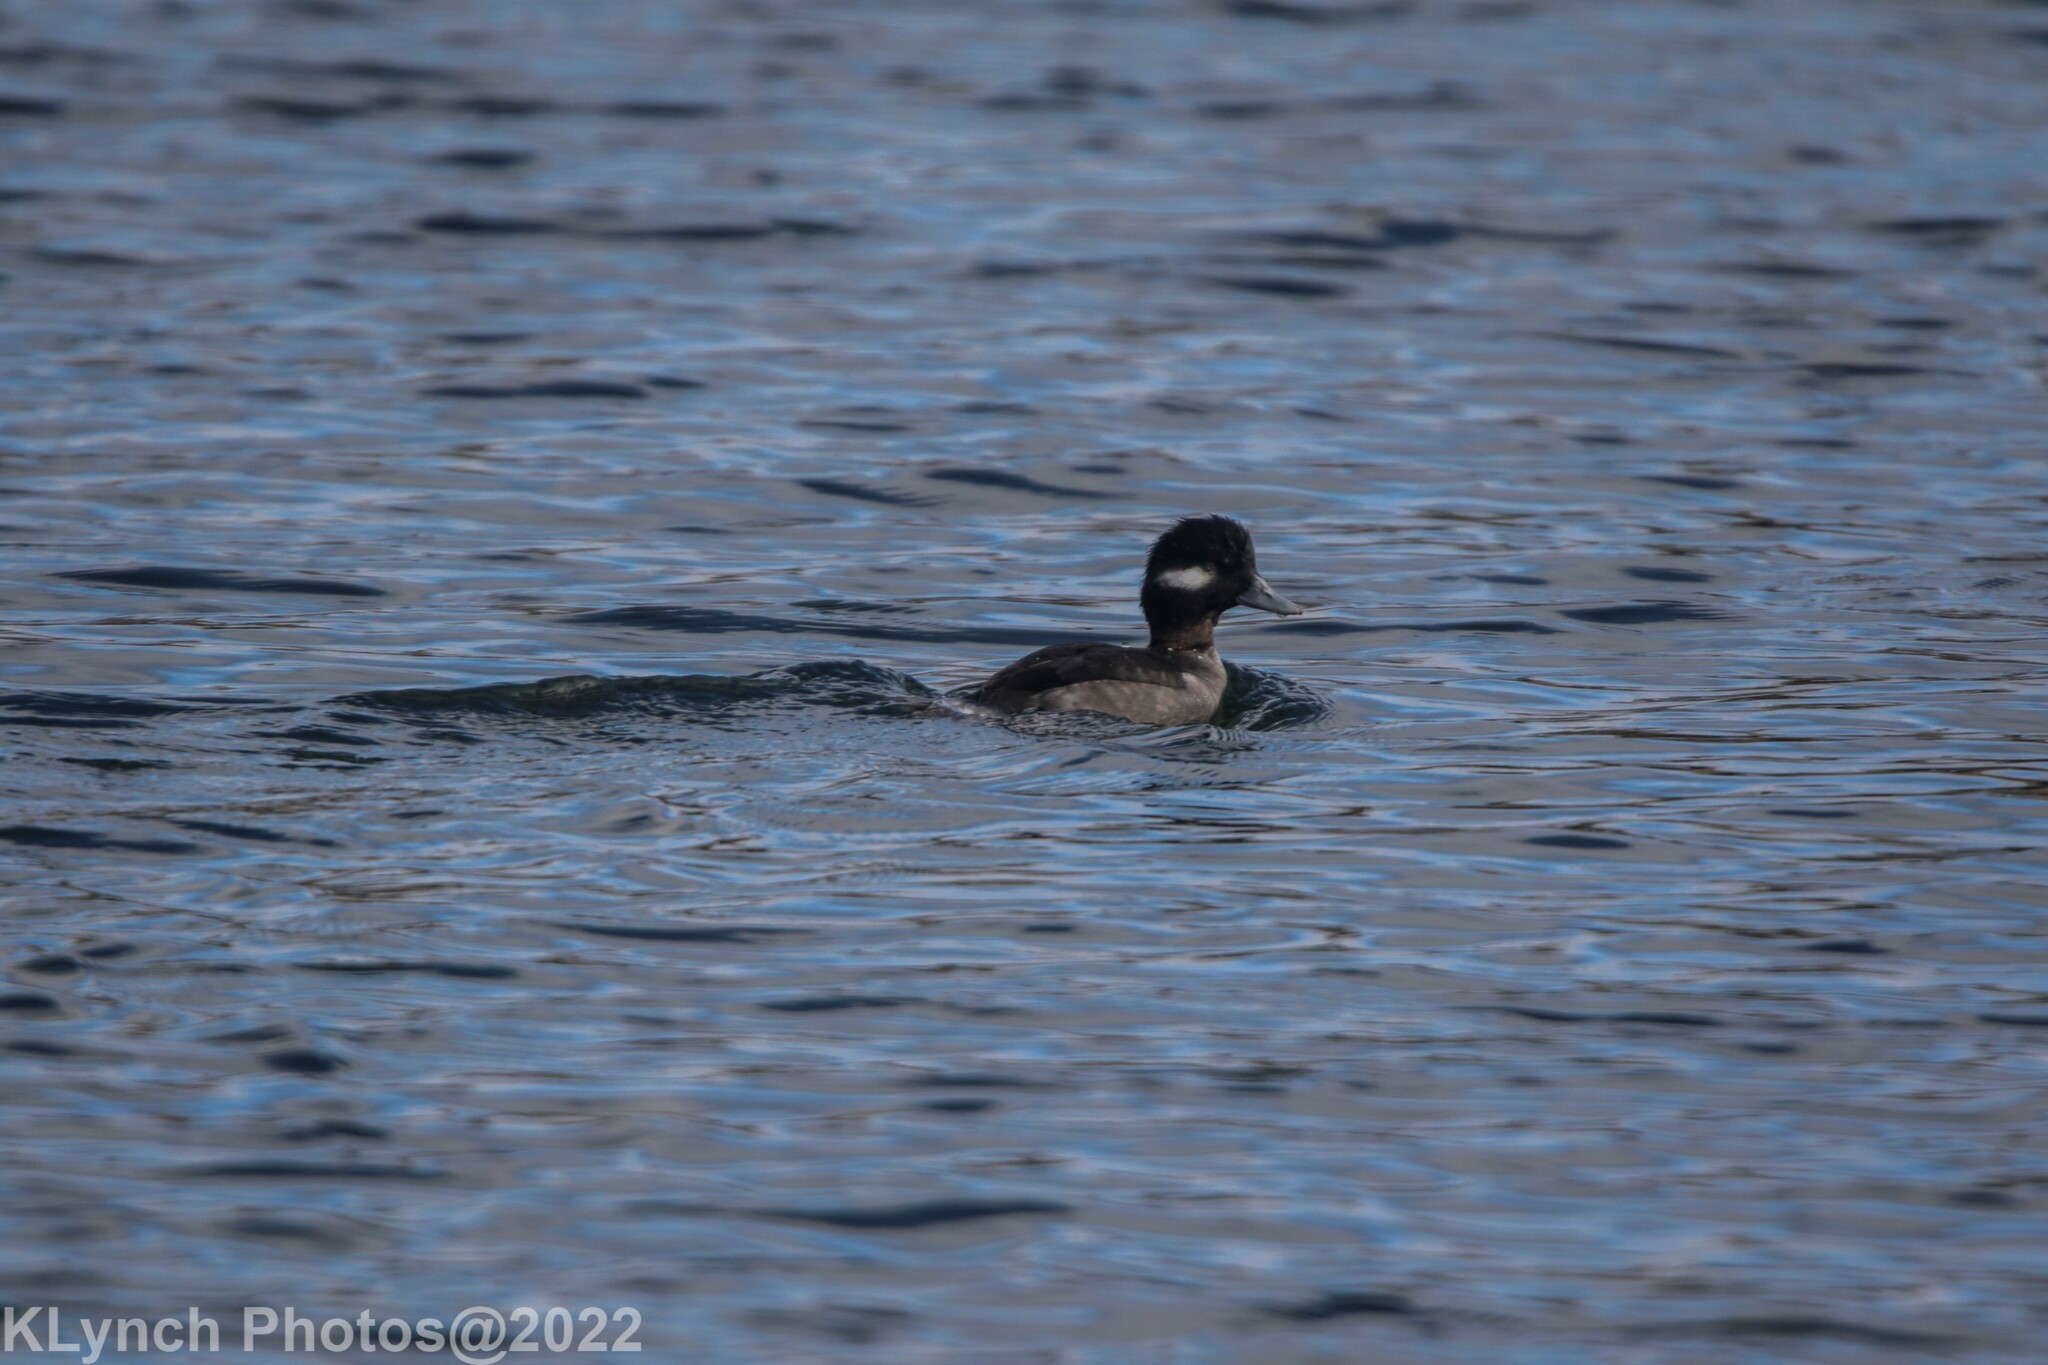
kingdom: Animalia
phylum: Chordata
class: Aves
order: Anseriformes
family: Anatidae
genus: Bucephala
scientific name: Bucephala albeola
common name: Bufflehead
